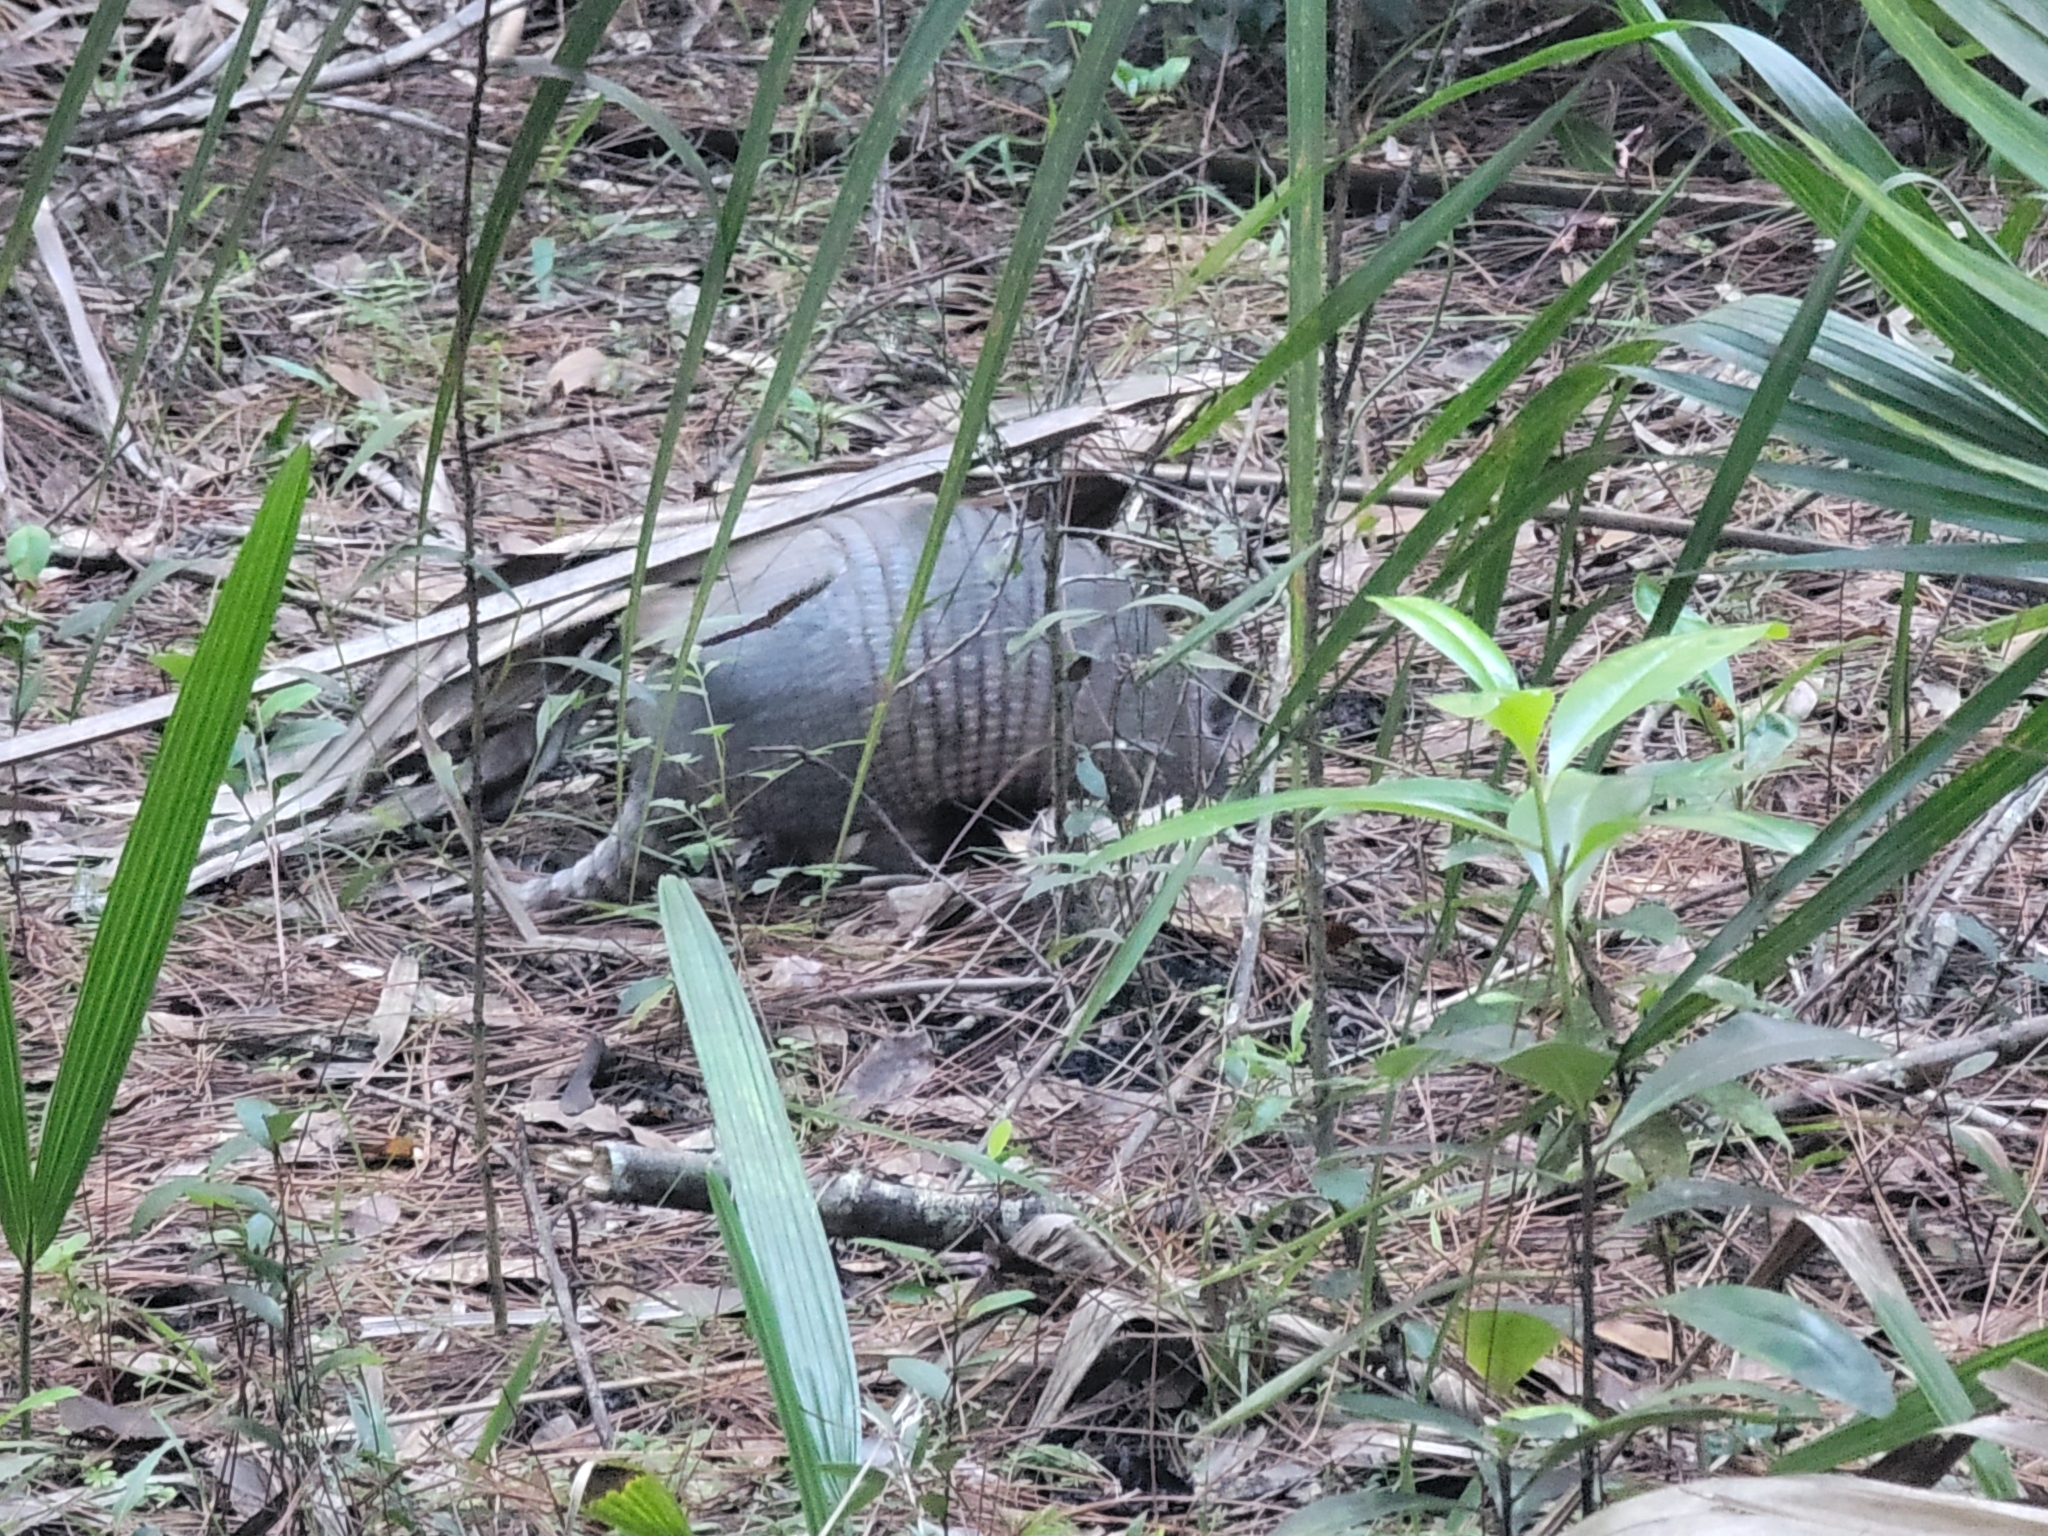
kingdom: Animalia
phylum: Chordata
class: Mammalia
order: Cingulata
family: Dasypodidae
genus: Dasypus
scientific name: Dasypus novemcinctus
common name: Nine-banded armadillo
